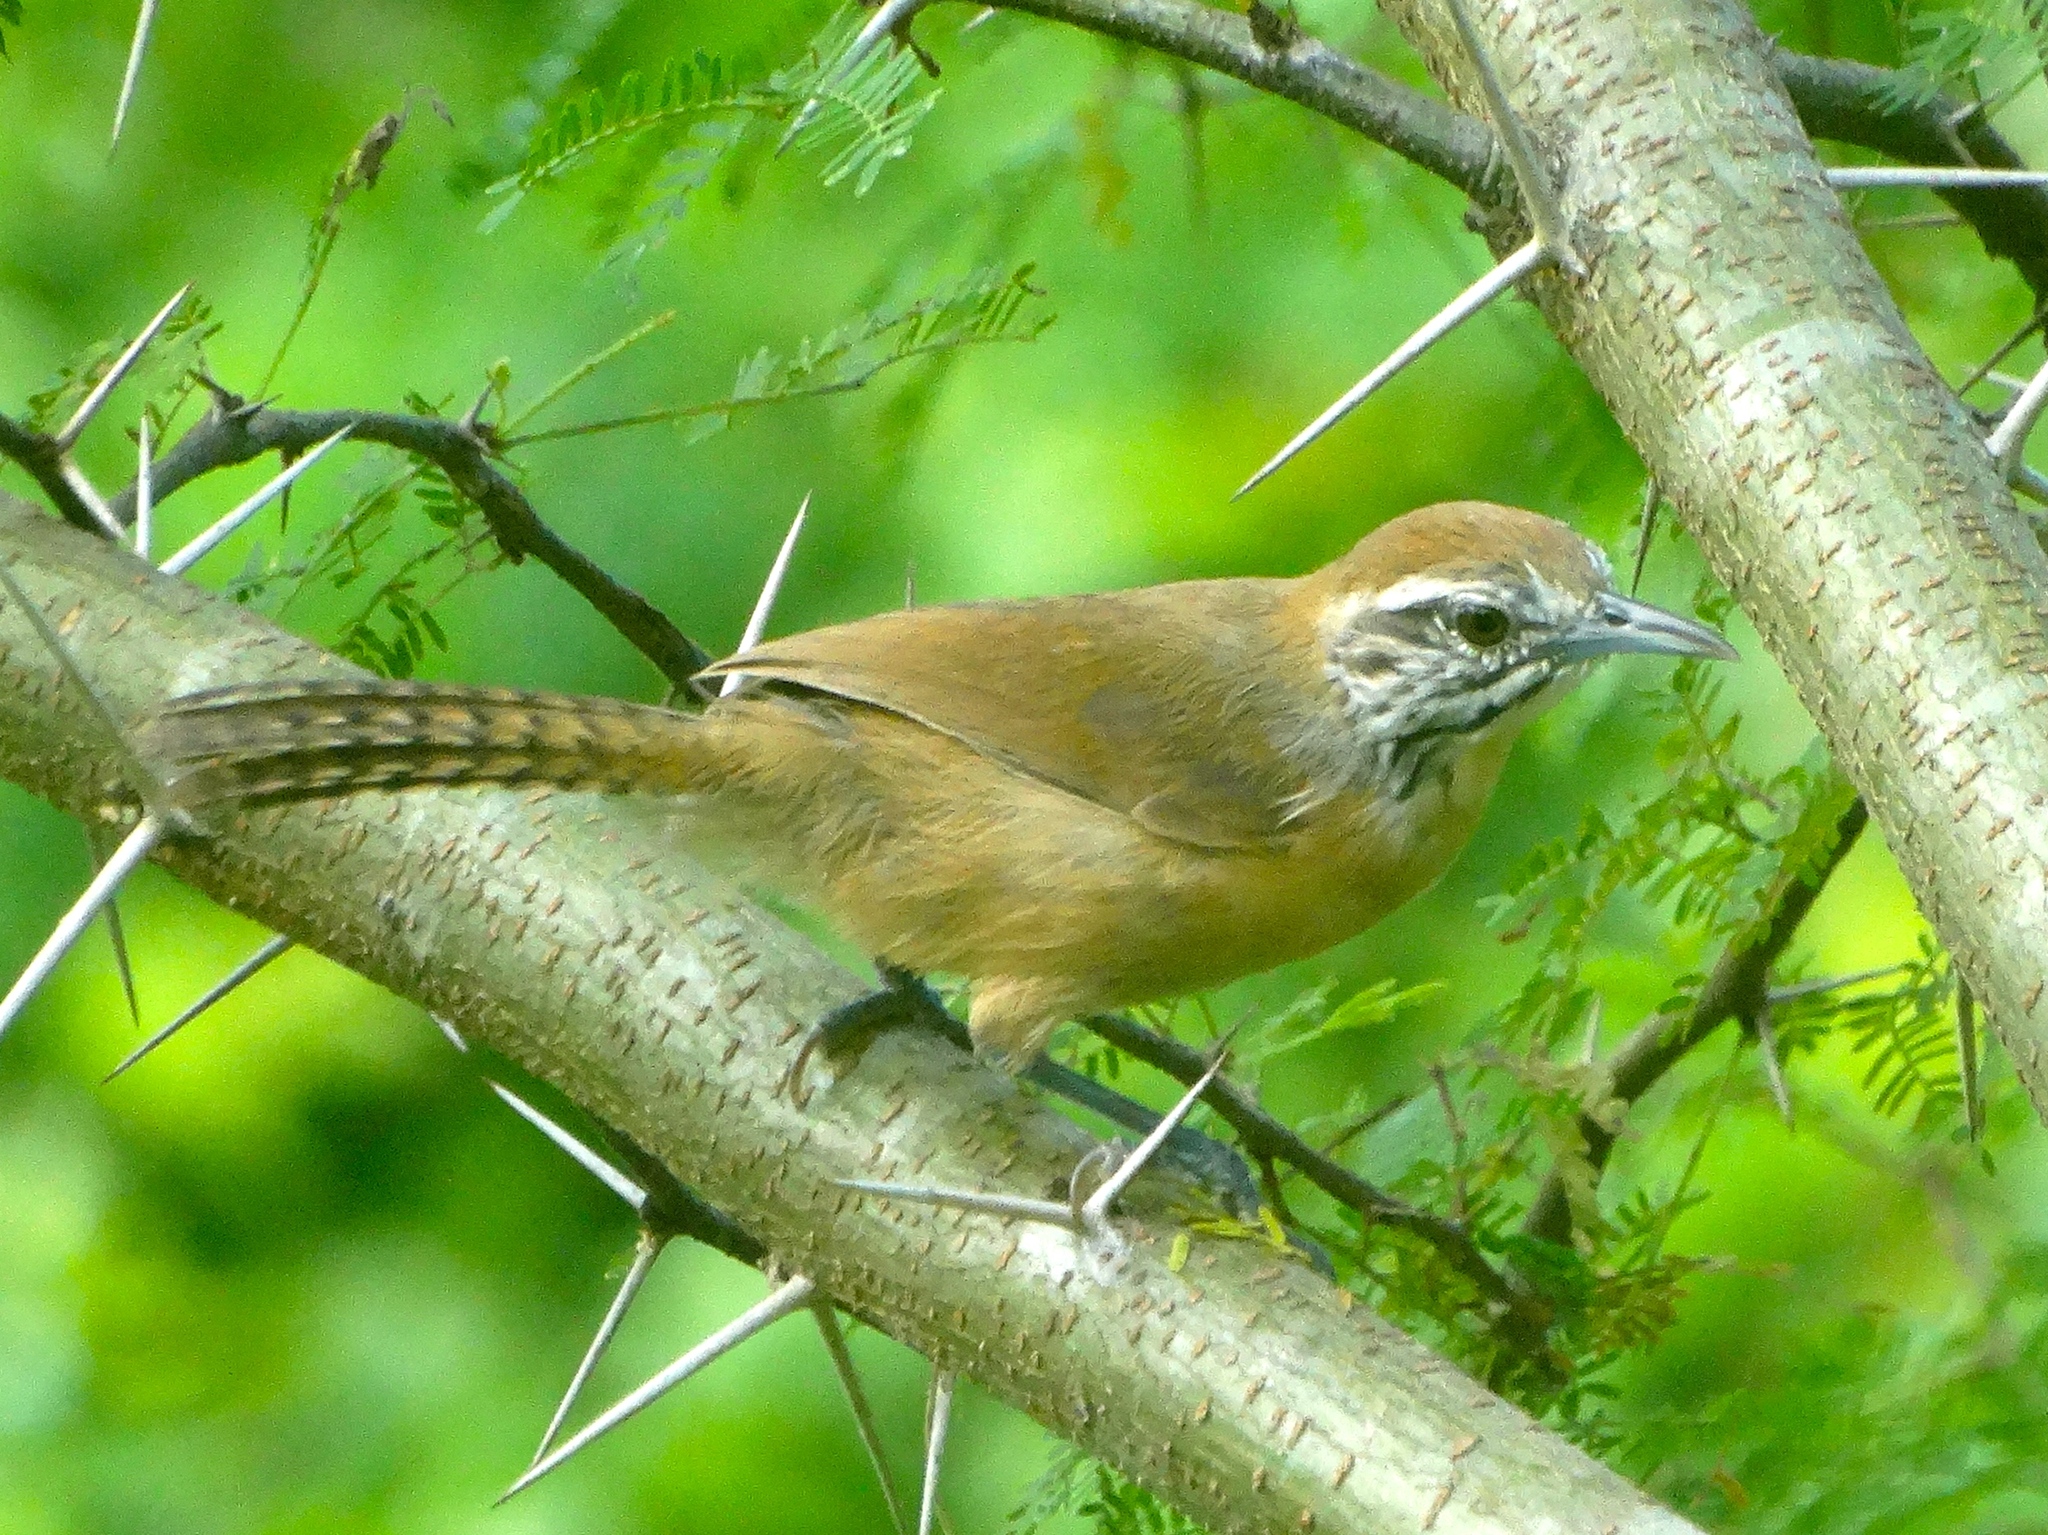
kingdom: Animalia
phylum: Chordata
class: Aves
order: Passeriformes
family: Troglodytidae
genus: Pheugopedius
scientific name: Pheugopedius felix
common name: Happy wren
